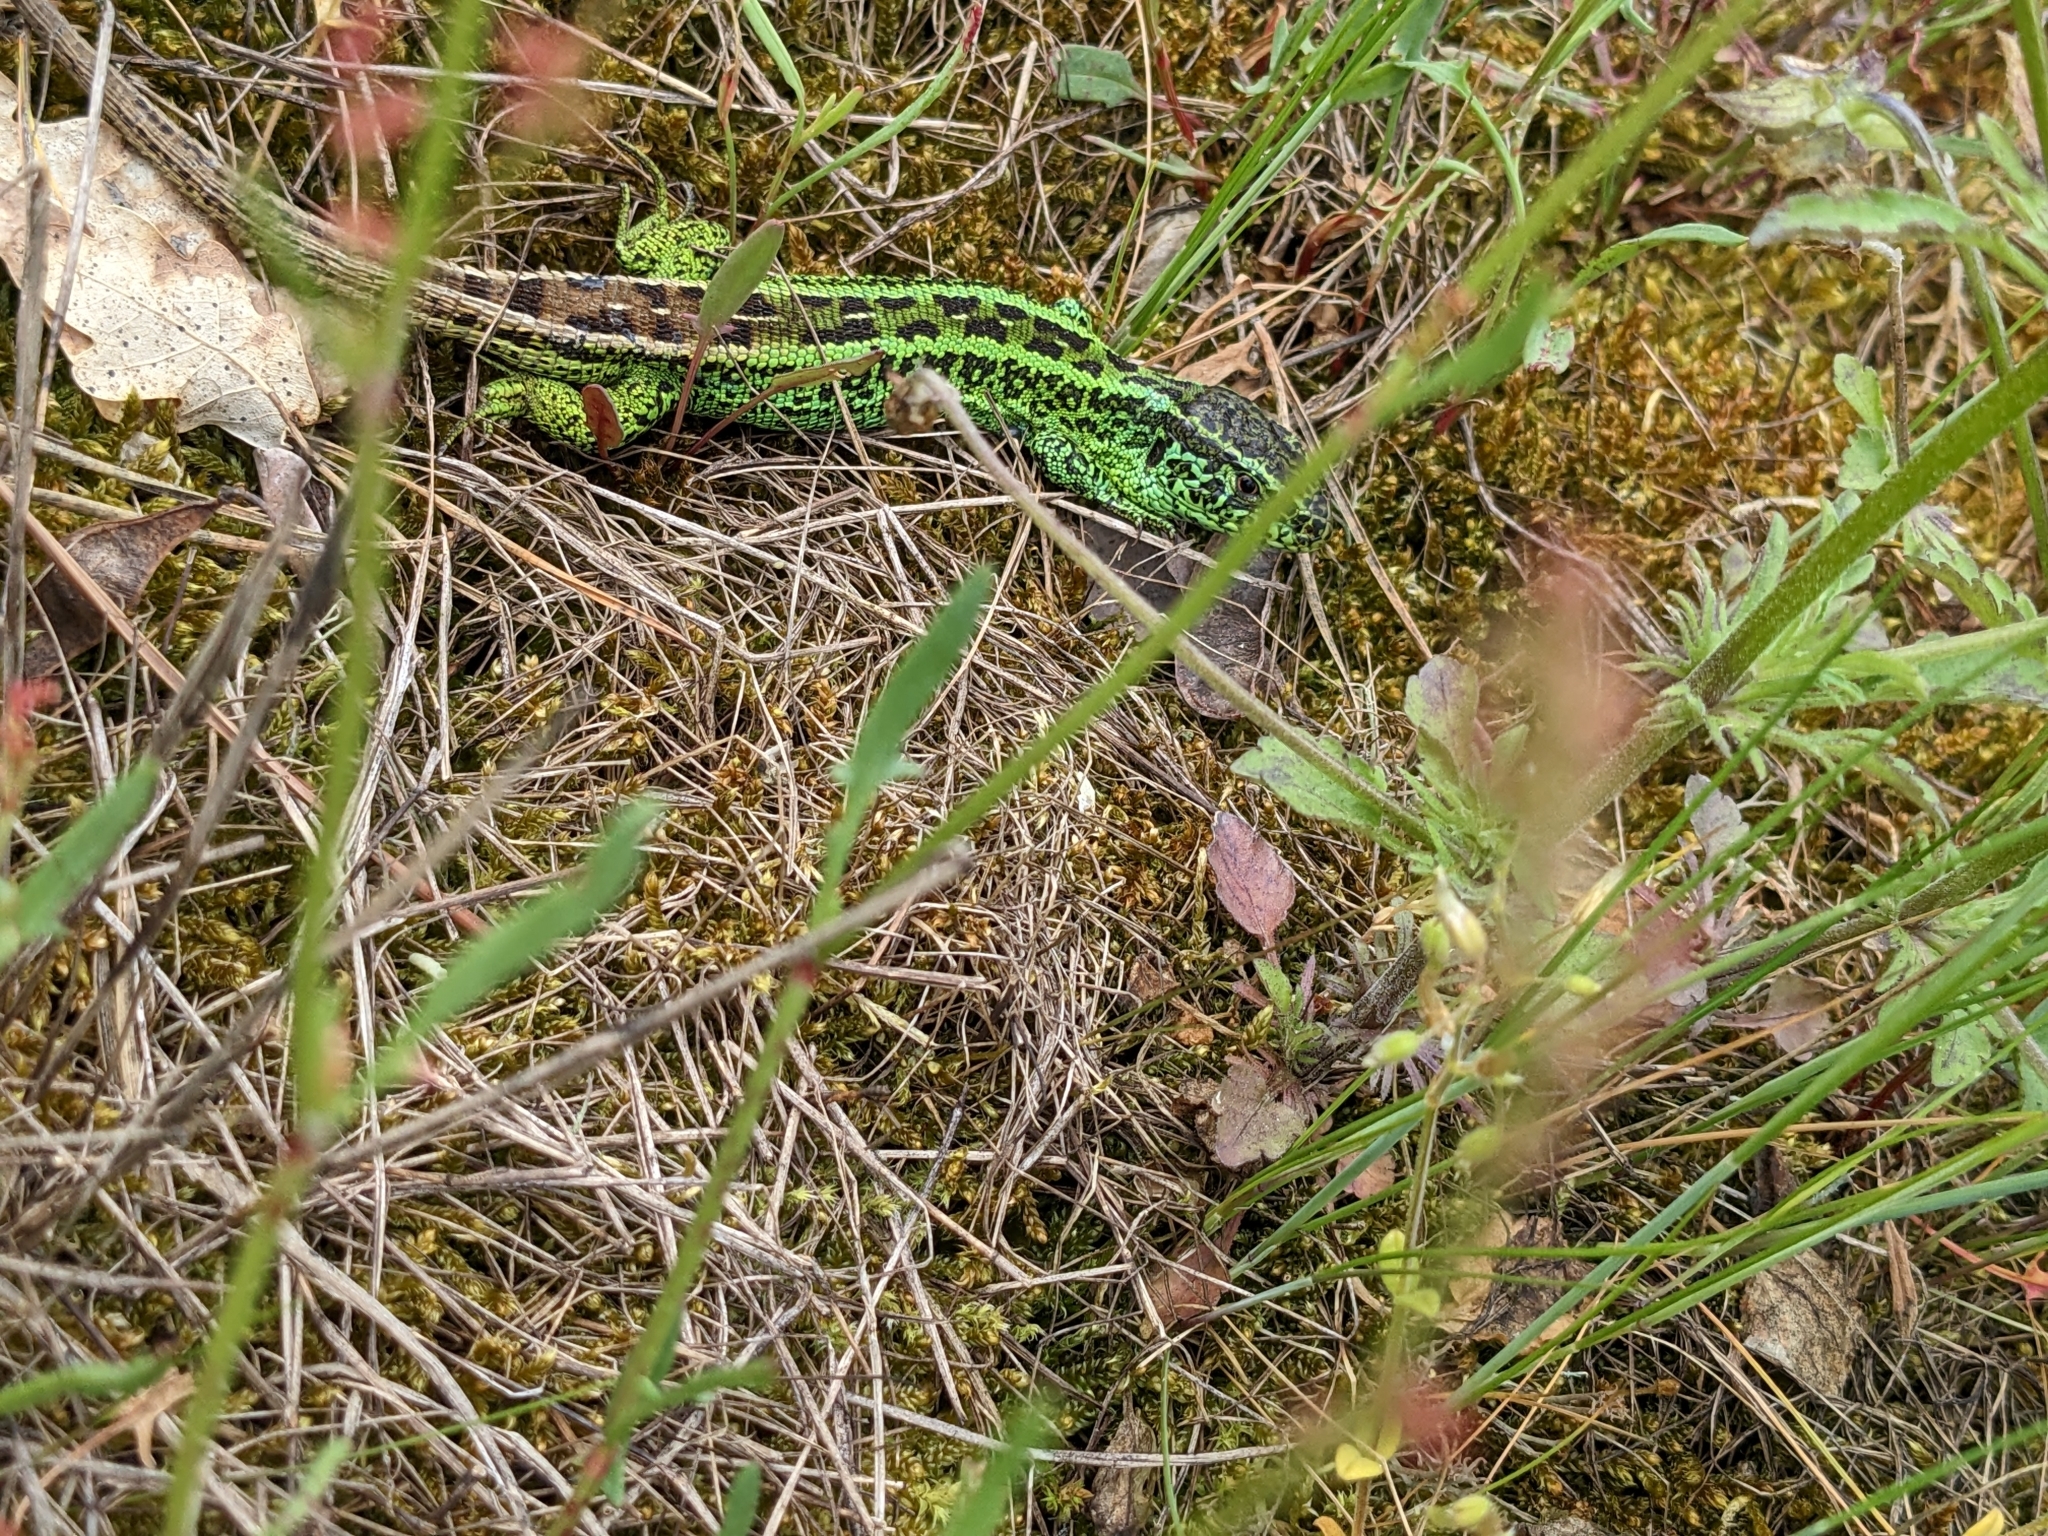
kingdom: Animalia
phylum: Chordata
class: Squamata
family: Lacertidae
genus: Lacerta
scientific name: Lacerta agilis
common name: Sand lizard
